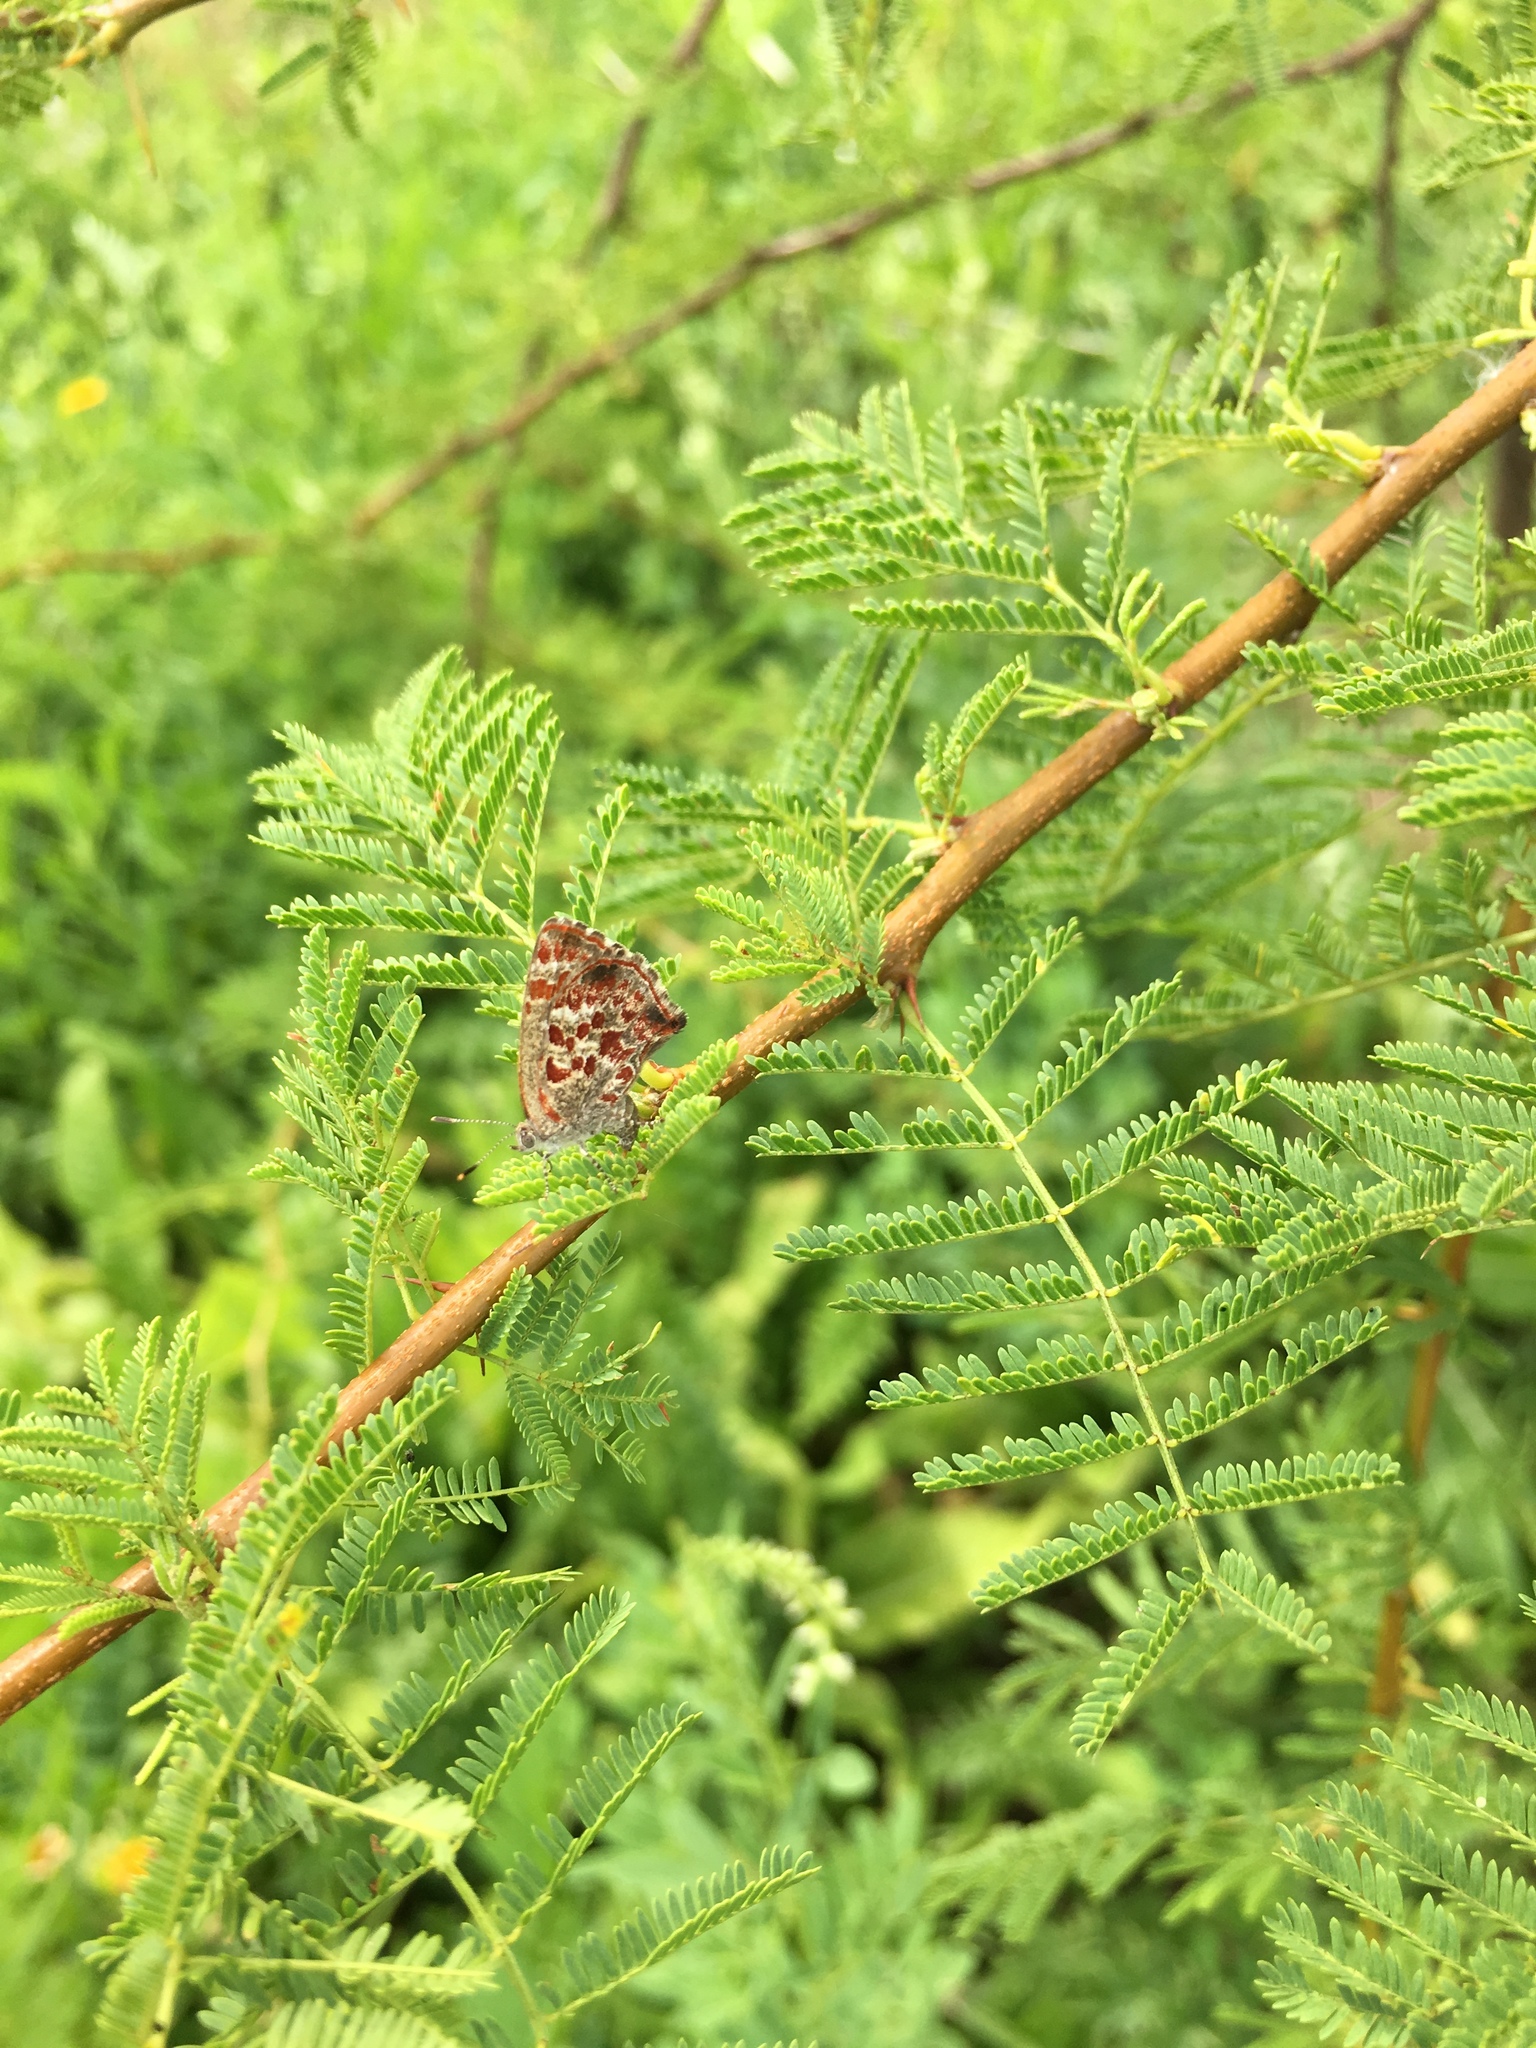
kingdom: Animalia
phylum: Arthropoda
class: Insecta
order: Lepidoptera
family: Lycaenidae
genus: Ministrymon
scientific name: Ministrymon
